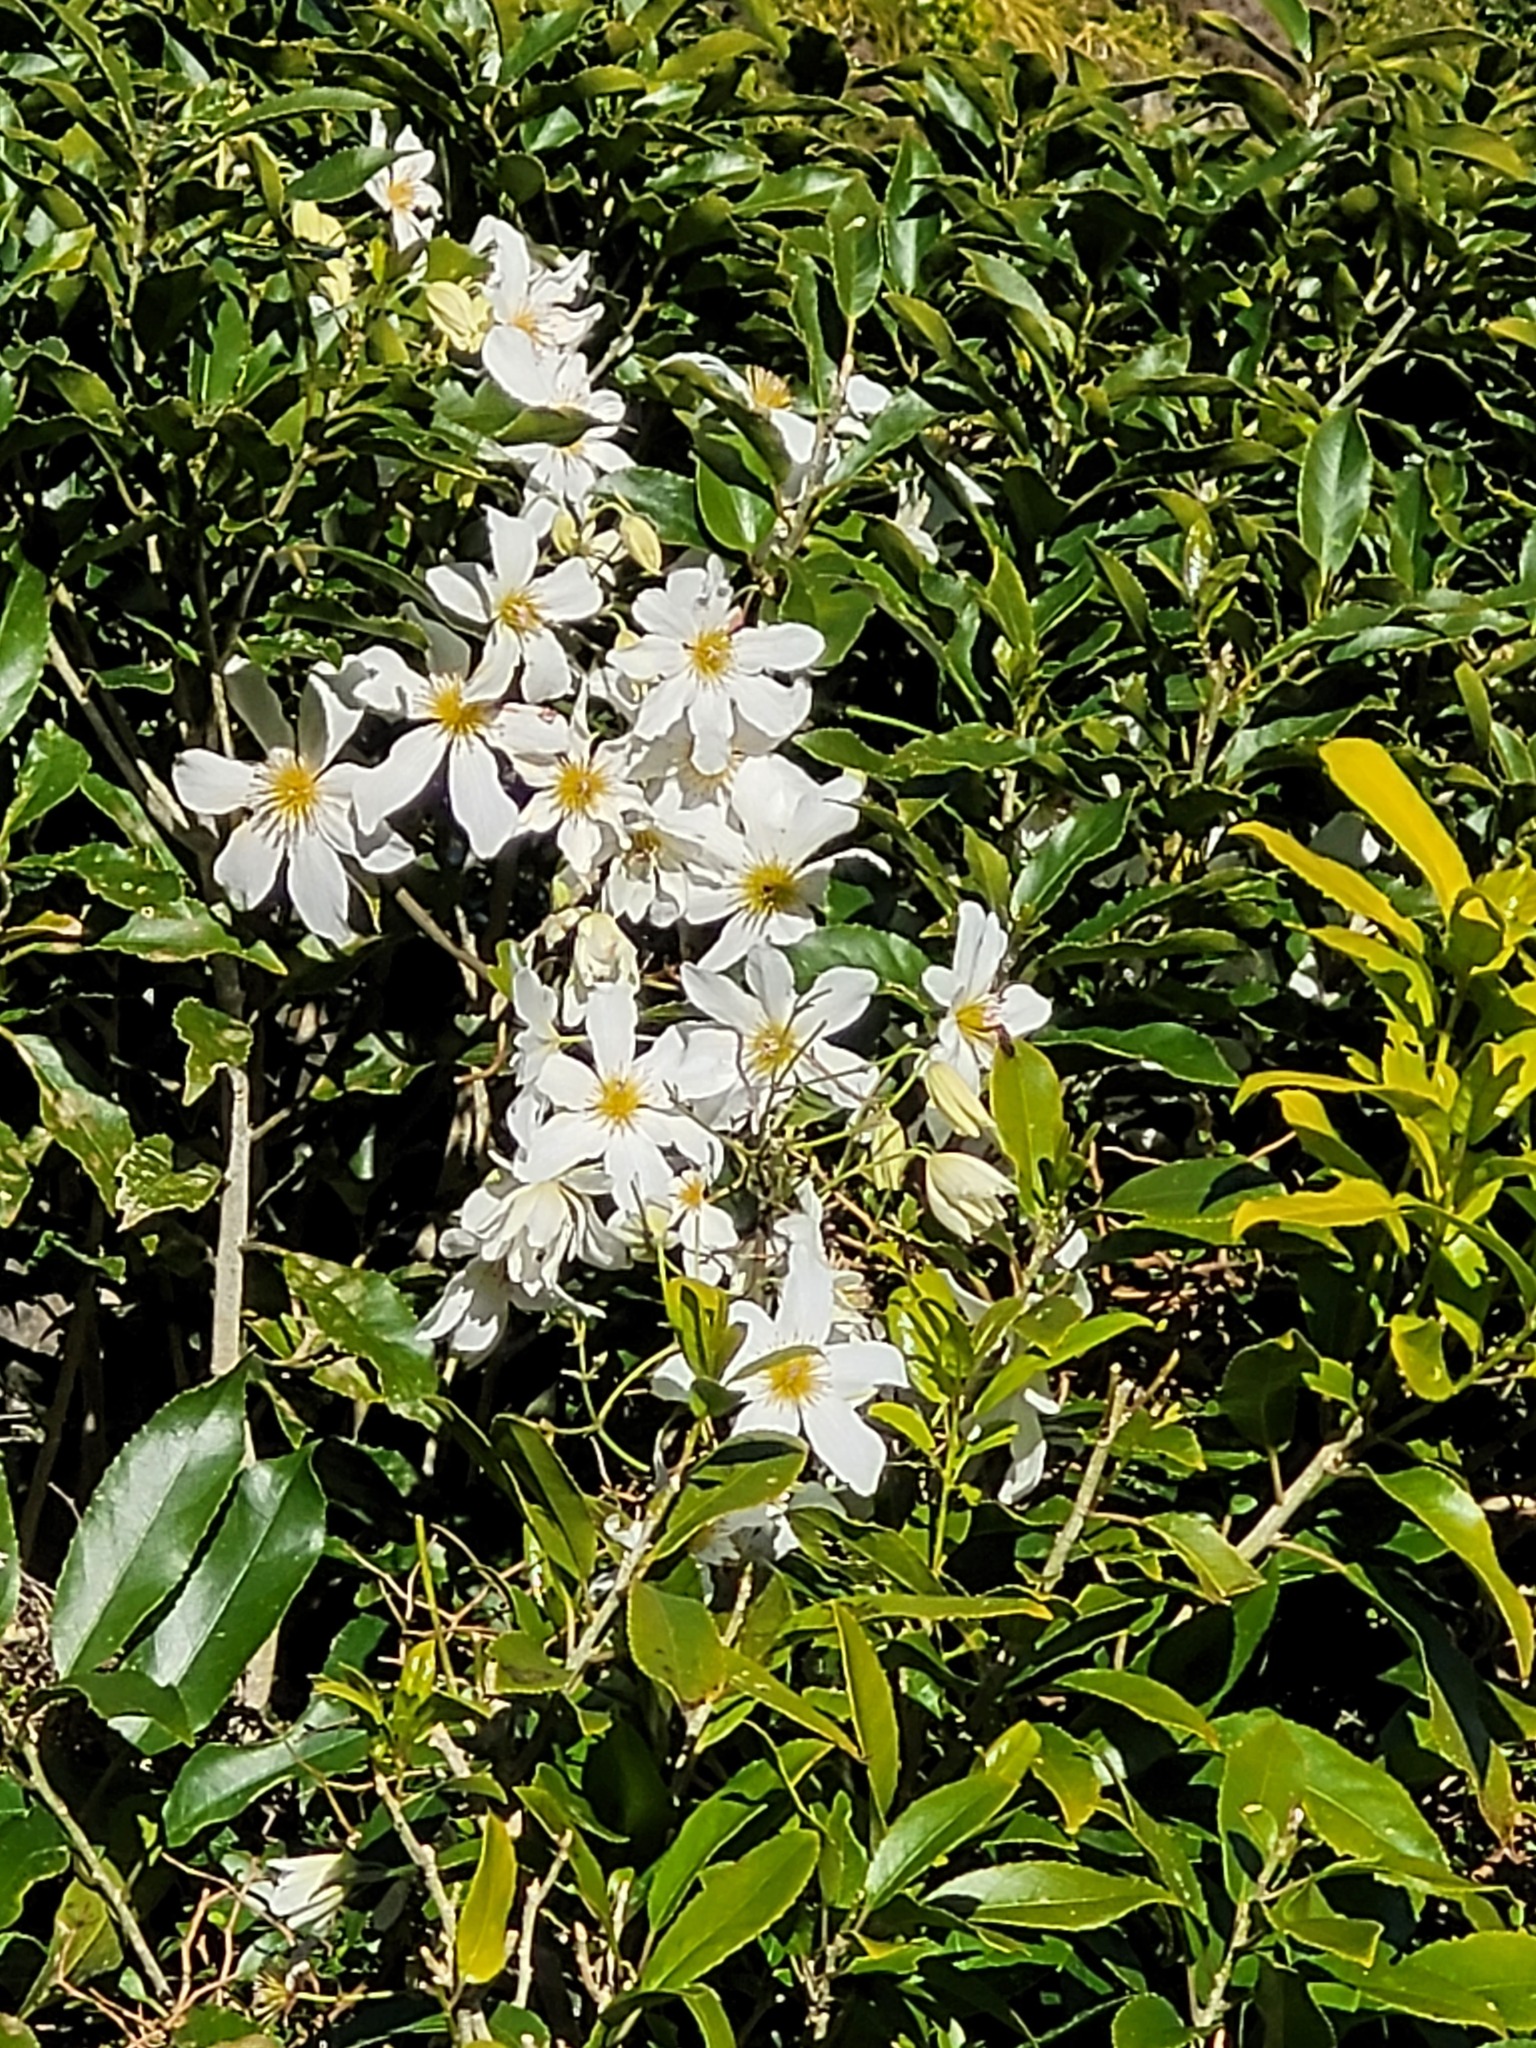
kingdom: Plantae
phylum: Tracheophyta
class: Magnoliopsida
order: Ranunculales
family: Ranunculaceae
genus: Clematis
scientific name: Clematis paniculata
